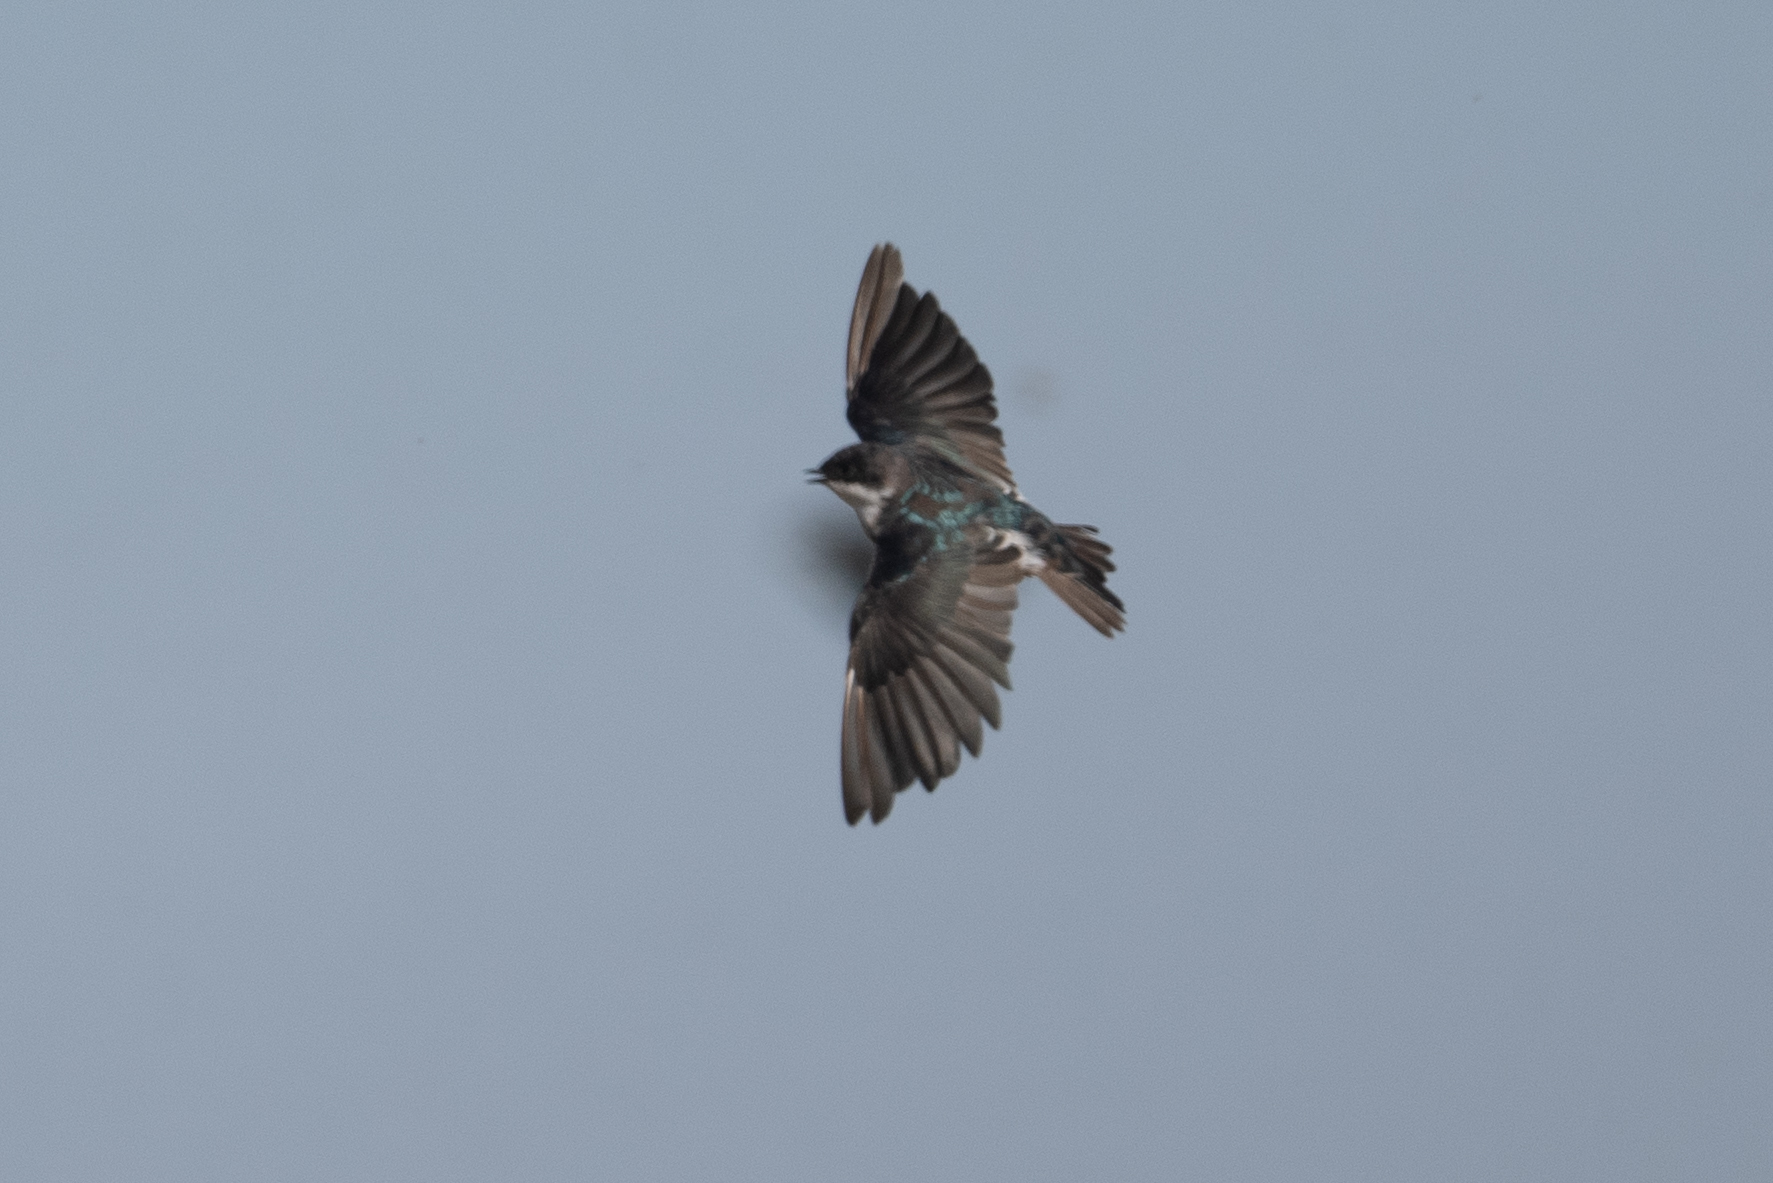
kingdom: Animalia
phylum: Chordata
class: Aves
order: Passeriformes
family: Hirundinidae
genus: Tachycineta
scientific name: Tachycineta bicolor
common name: Tree swallow
